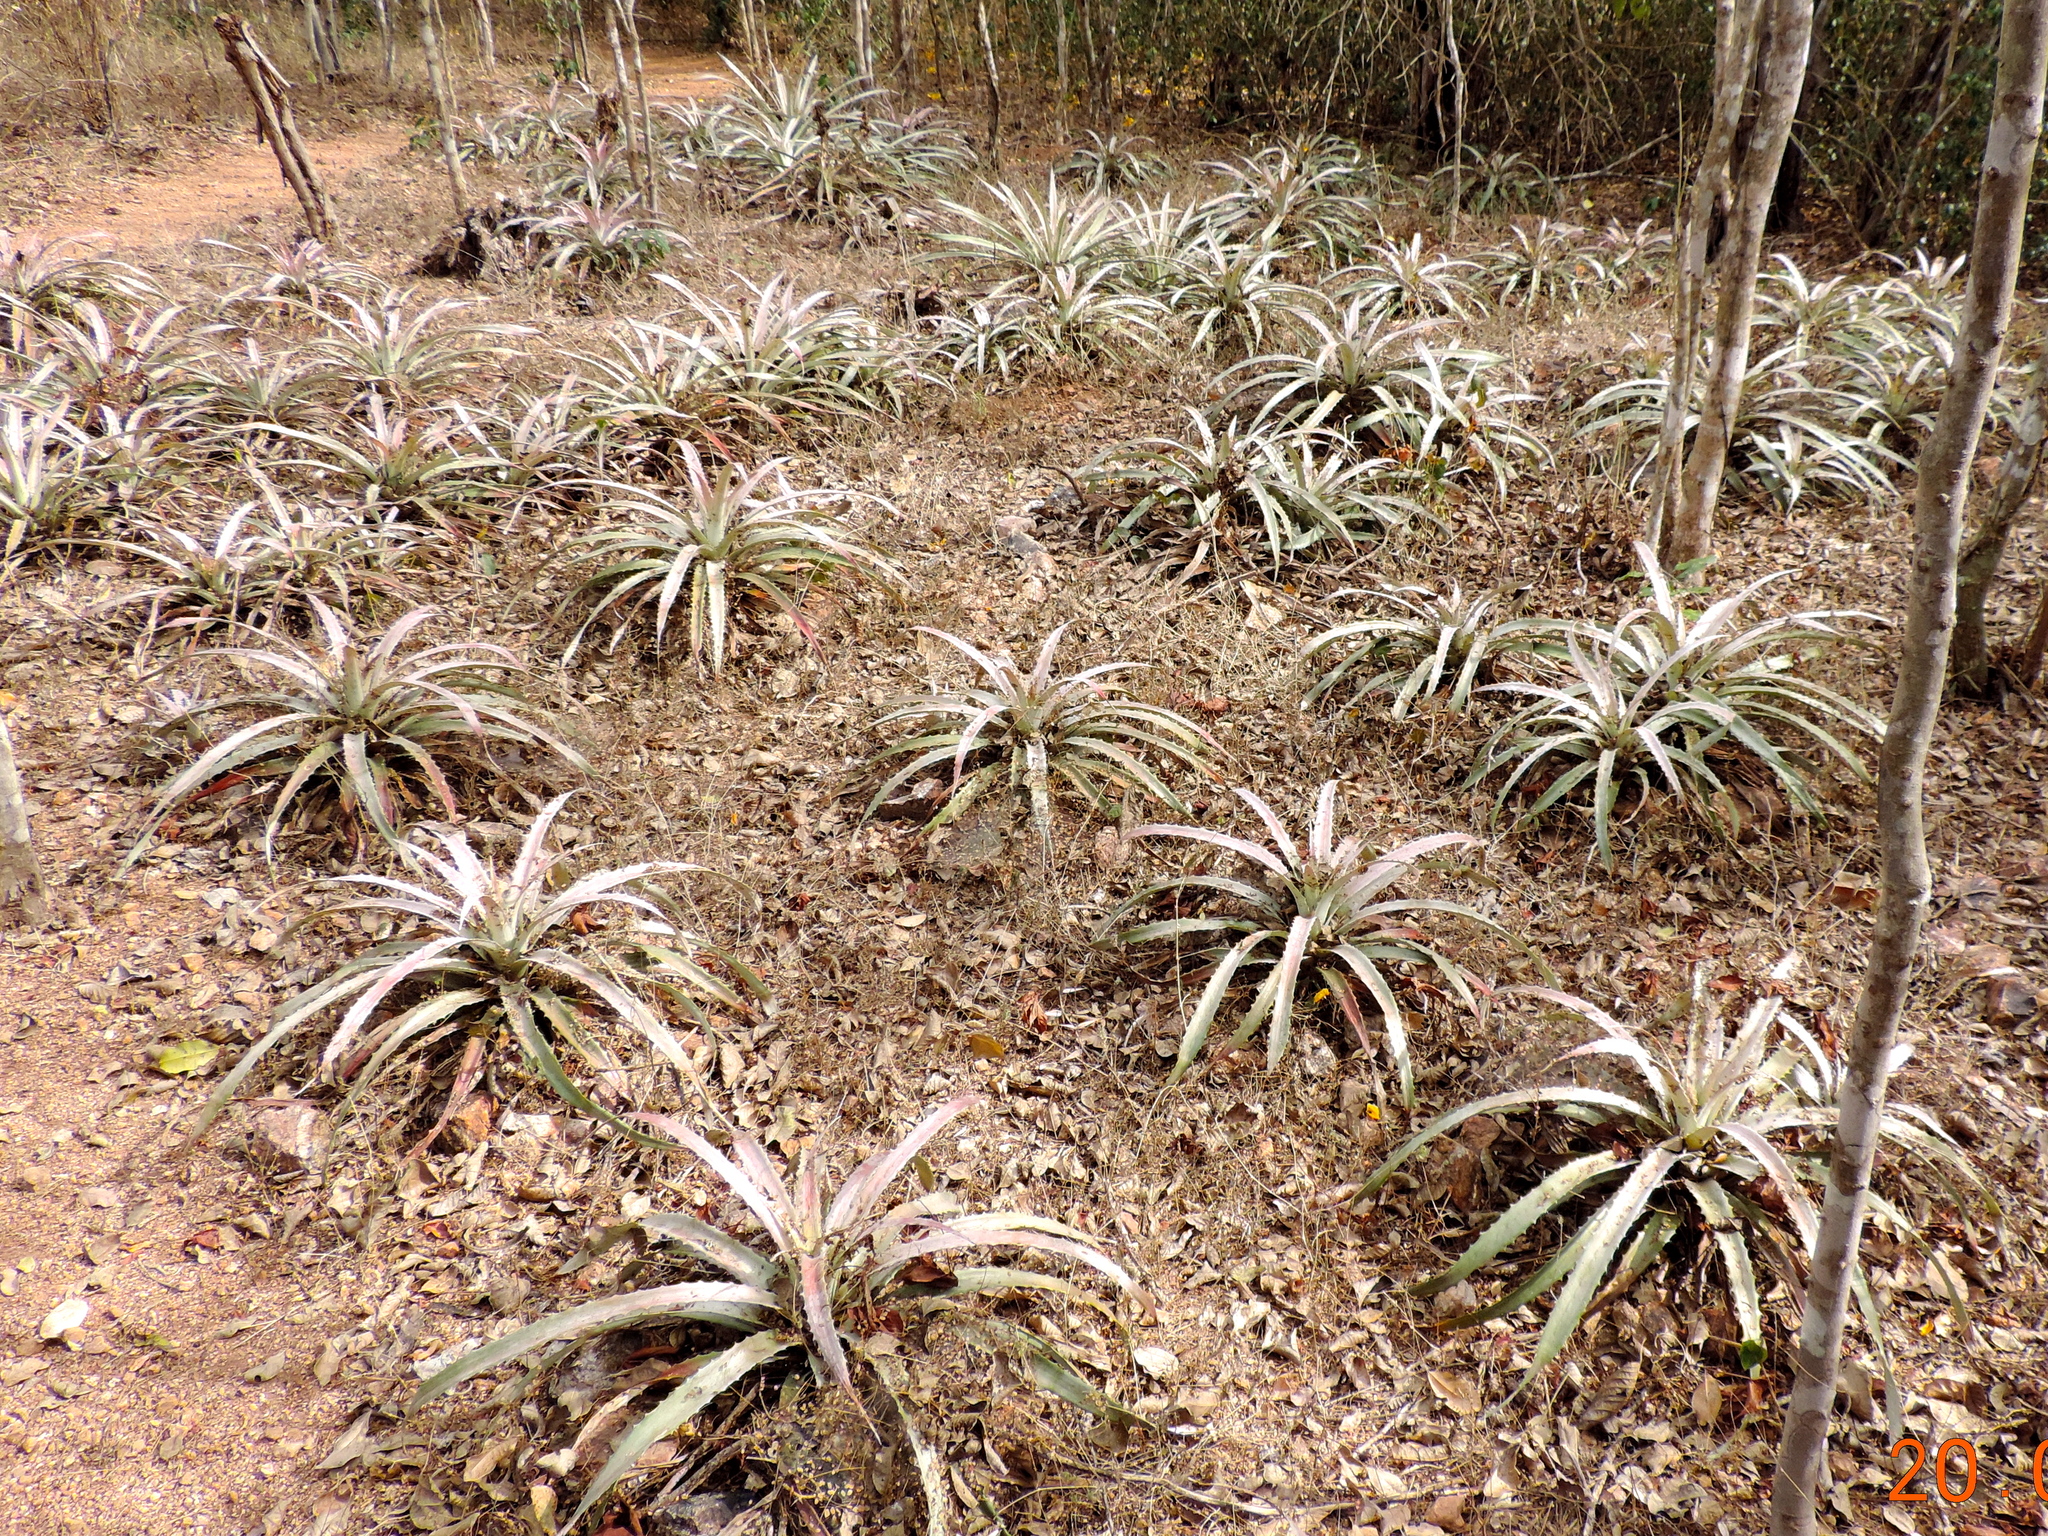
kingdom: Plantae
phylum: Tracheophyta
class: Liliopsida
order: Poales
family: Bromeliaceae
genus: Bromelia
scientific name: Bromelia pinguin
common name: Pinguin
